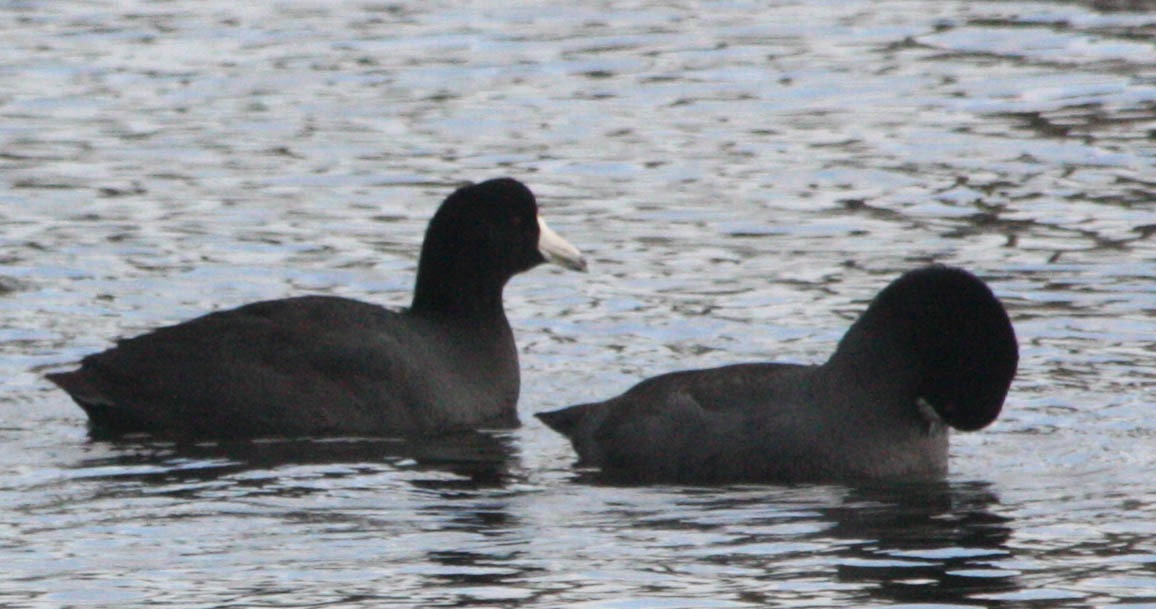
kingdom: Animalia
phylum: Chordata
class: Aves
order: Gruiformes
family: Rallidae
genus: Fulica
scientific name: Fulica americana
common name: American coot
